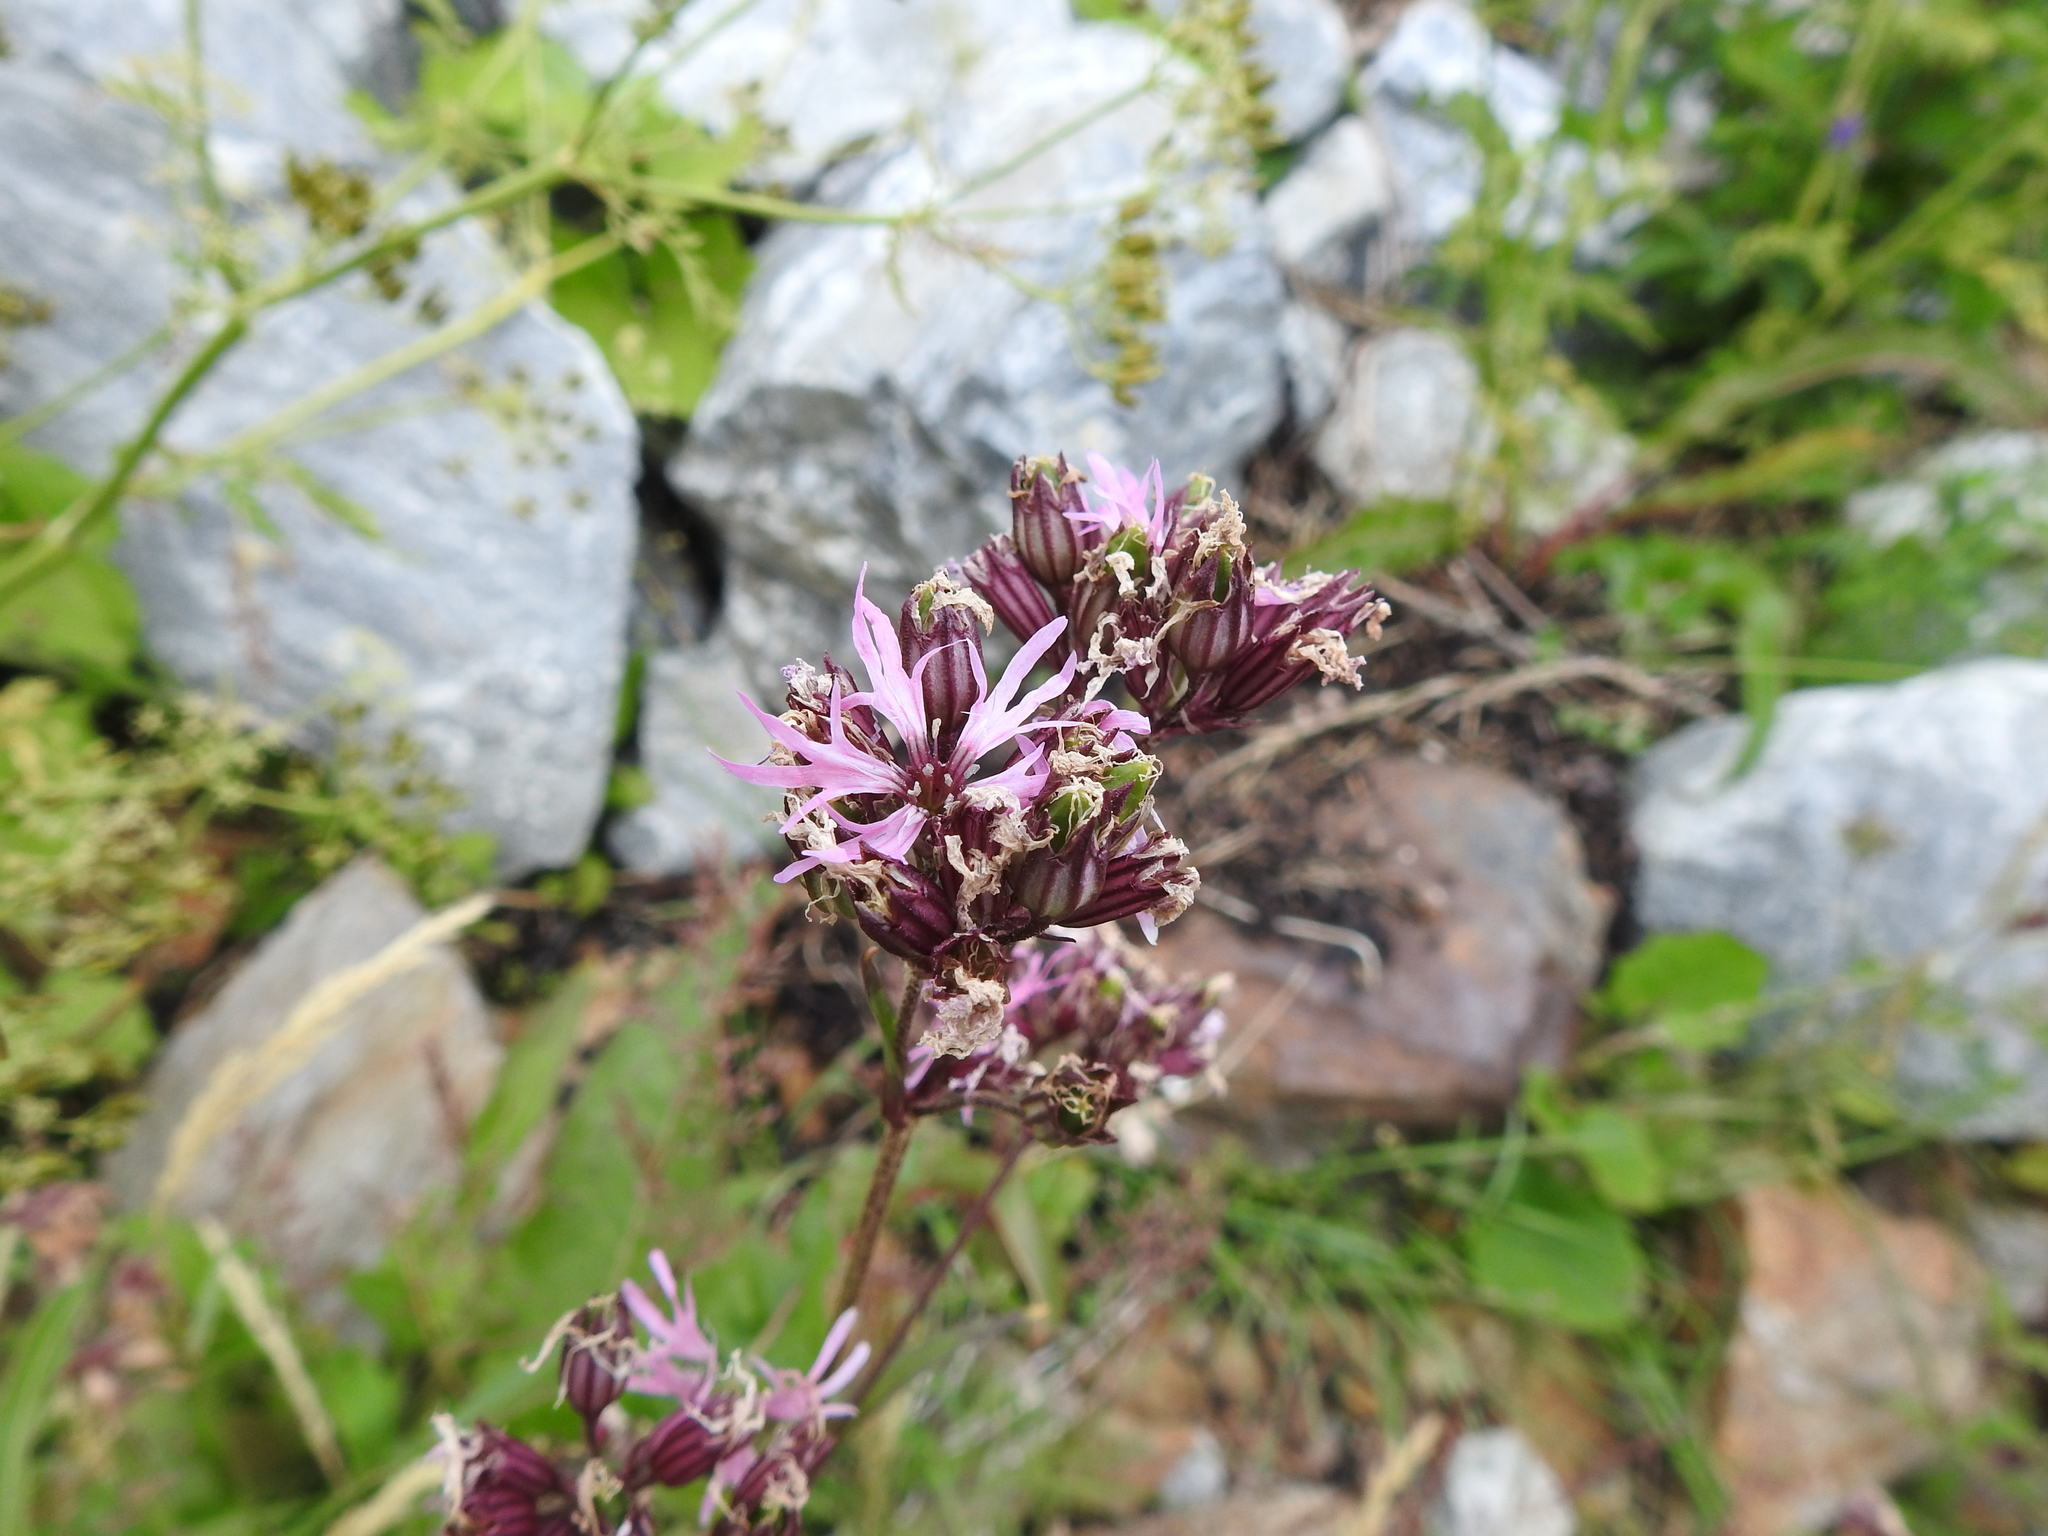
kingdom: Plantae
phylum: Tracheophyta
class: Magnoliopsida
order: Caryophyllales
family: Caryophyllaceae
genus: Silene
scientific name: Silene flos-cuculi
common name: Ragged-robin
